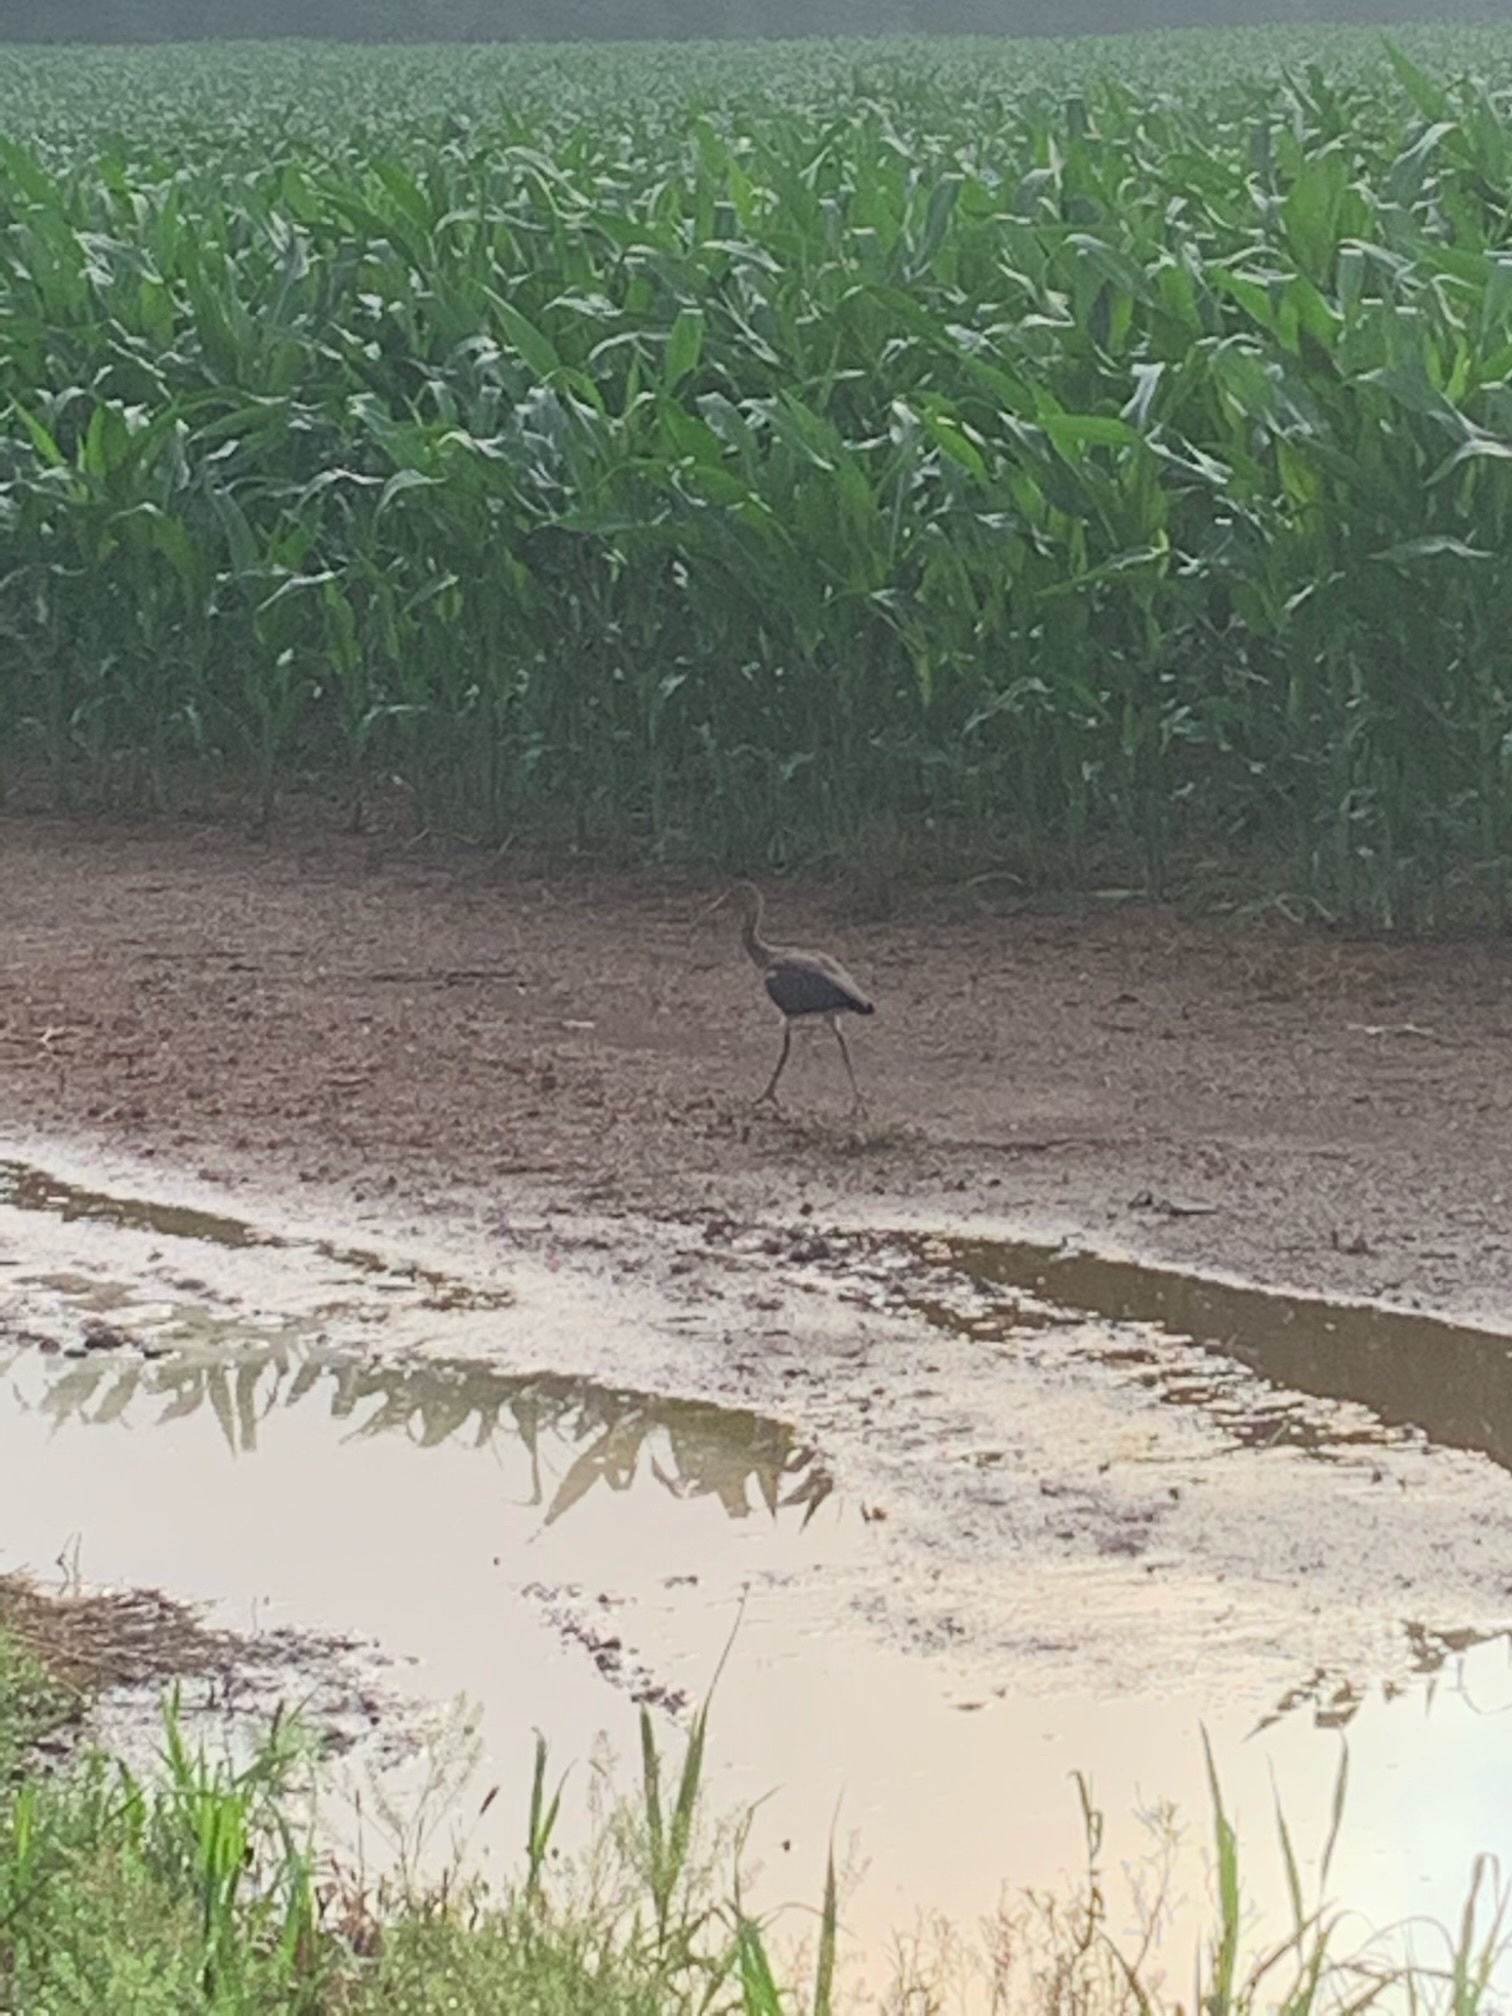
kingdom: Animalia
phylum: Chordata
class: Aves
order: Pelecaniformes
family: Threskiornithidae
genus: Eudocimus
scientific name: Eudocimus albus
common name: White ibis
